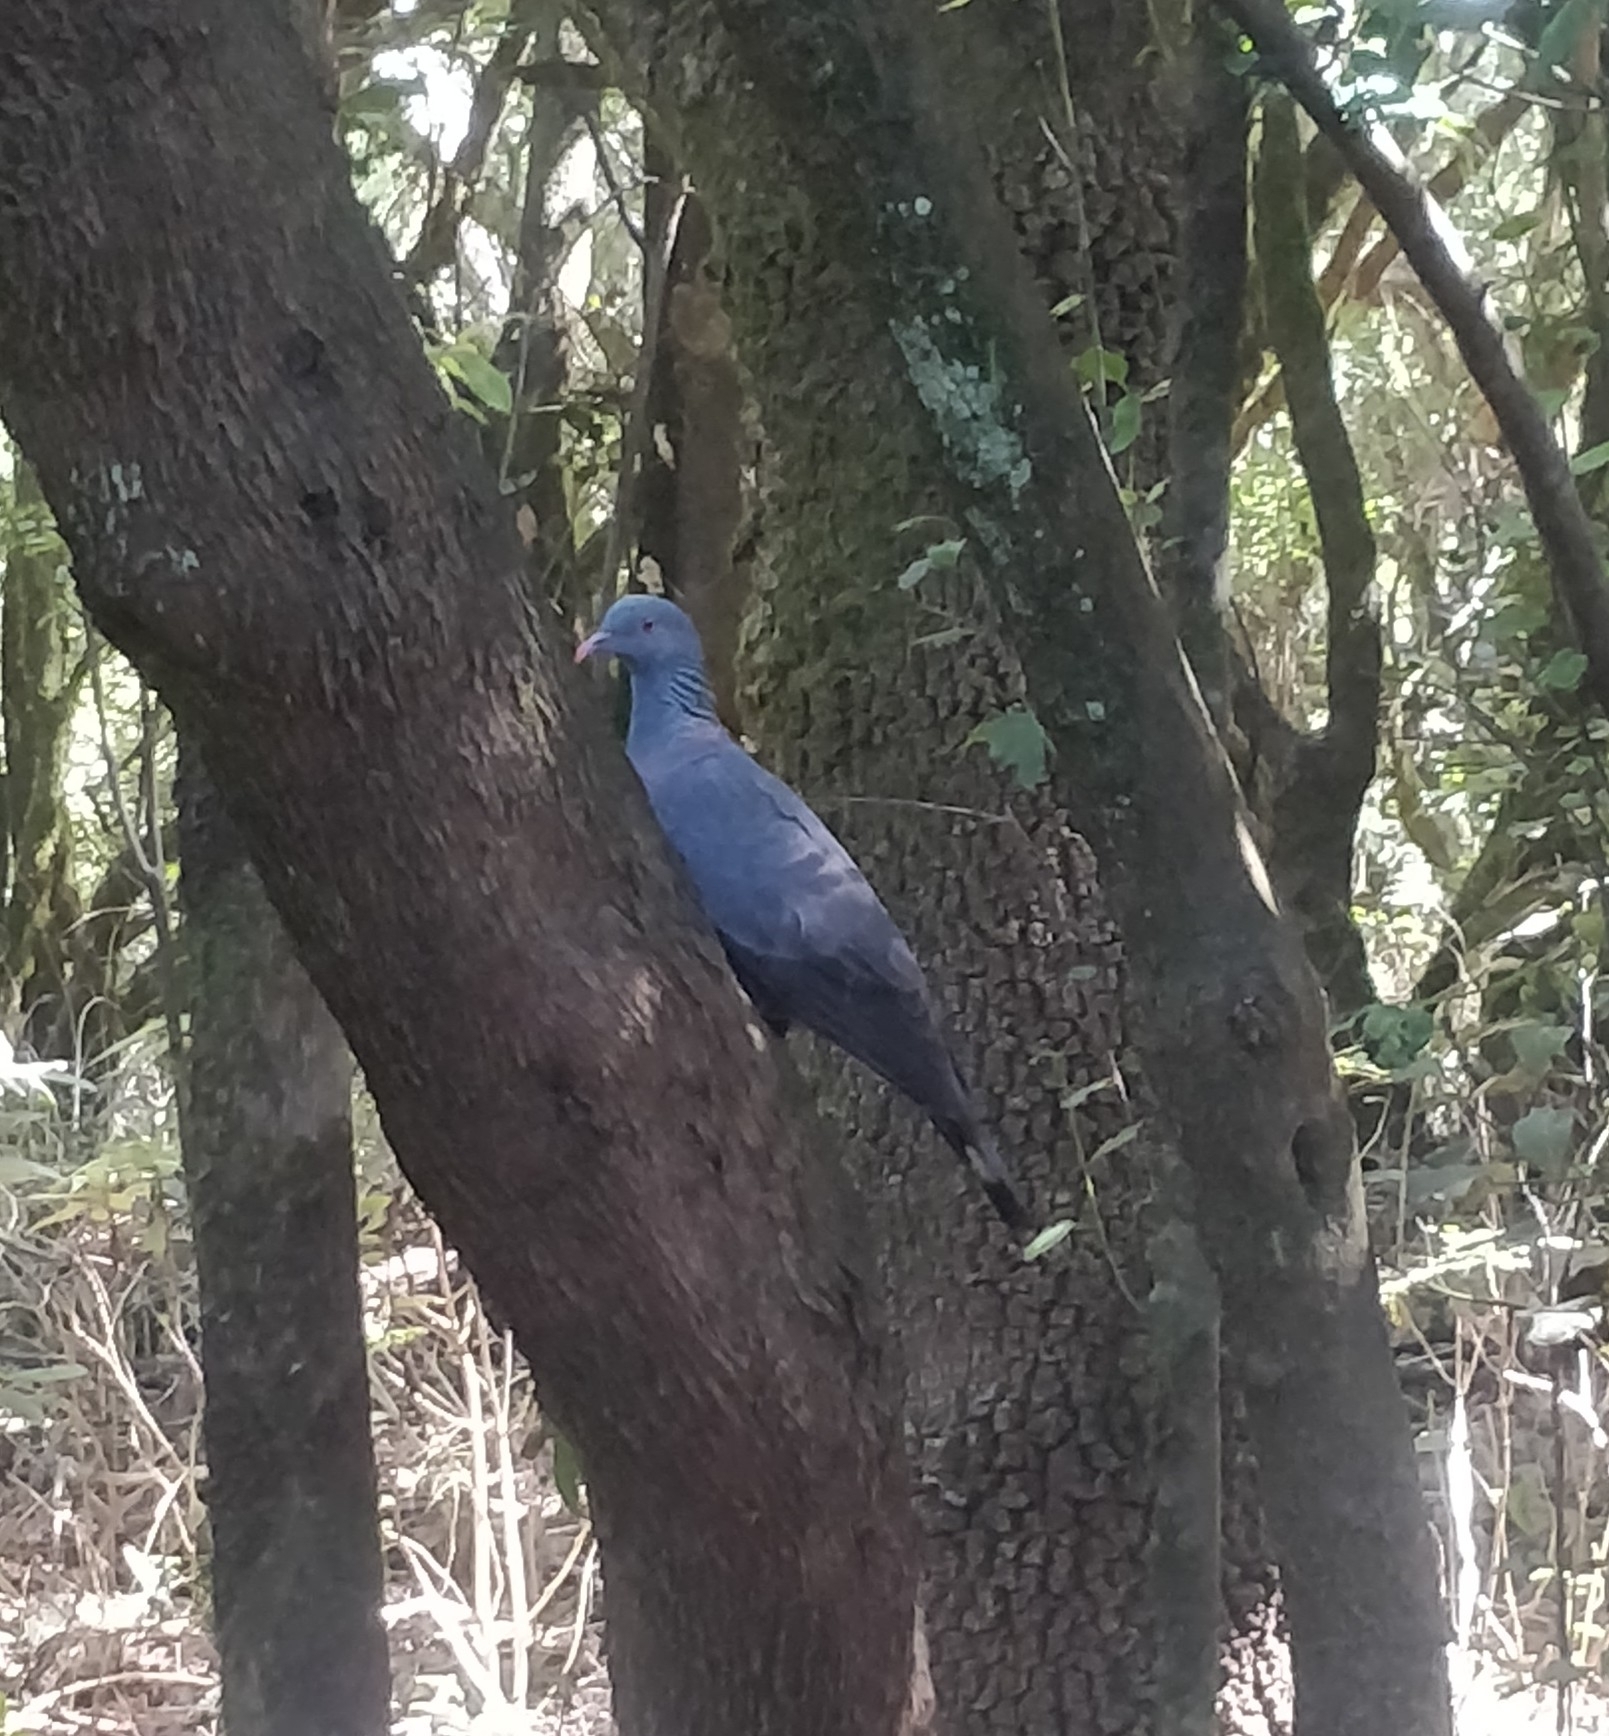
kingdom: Animalia
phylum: Chordata
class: Aves
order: Columbiformes
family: Columbidae
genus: Columba
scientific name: Columba bollii
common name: Bolle's pigeon
